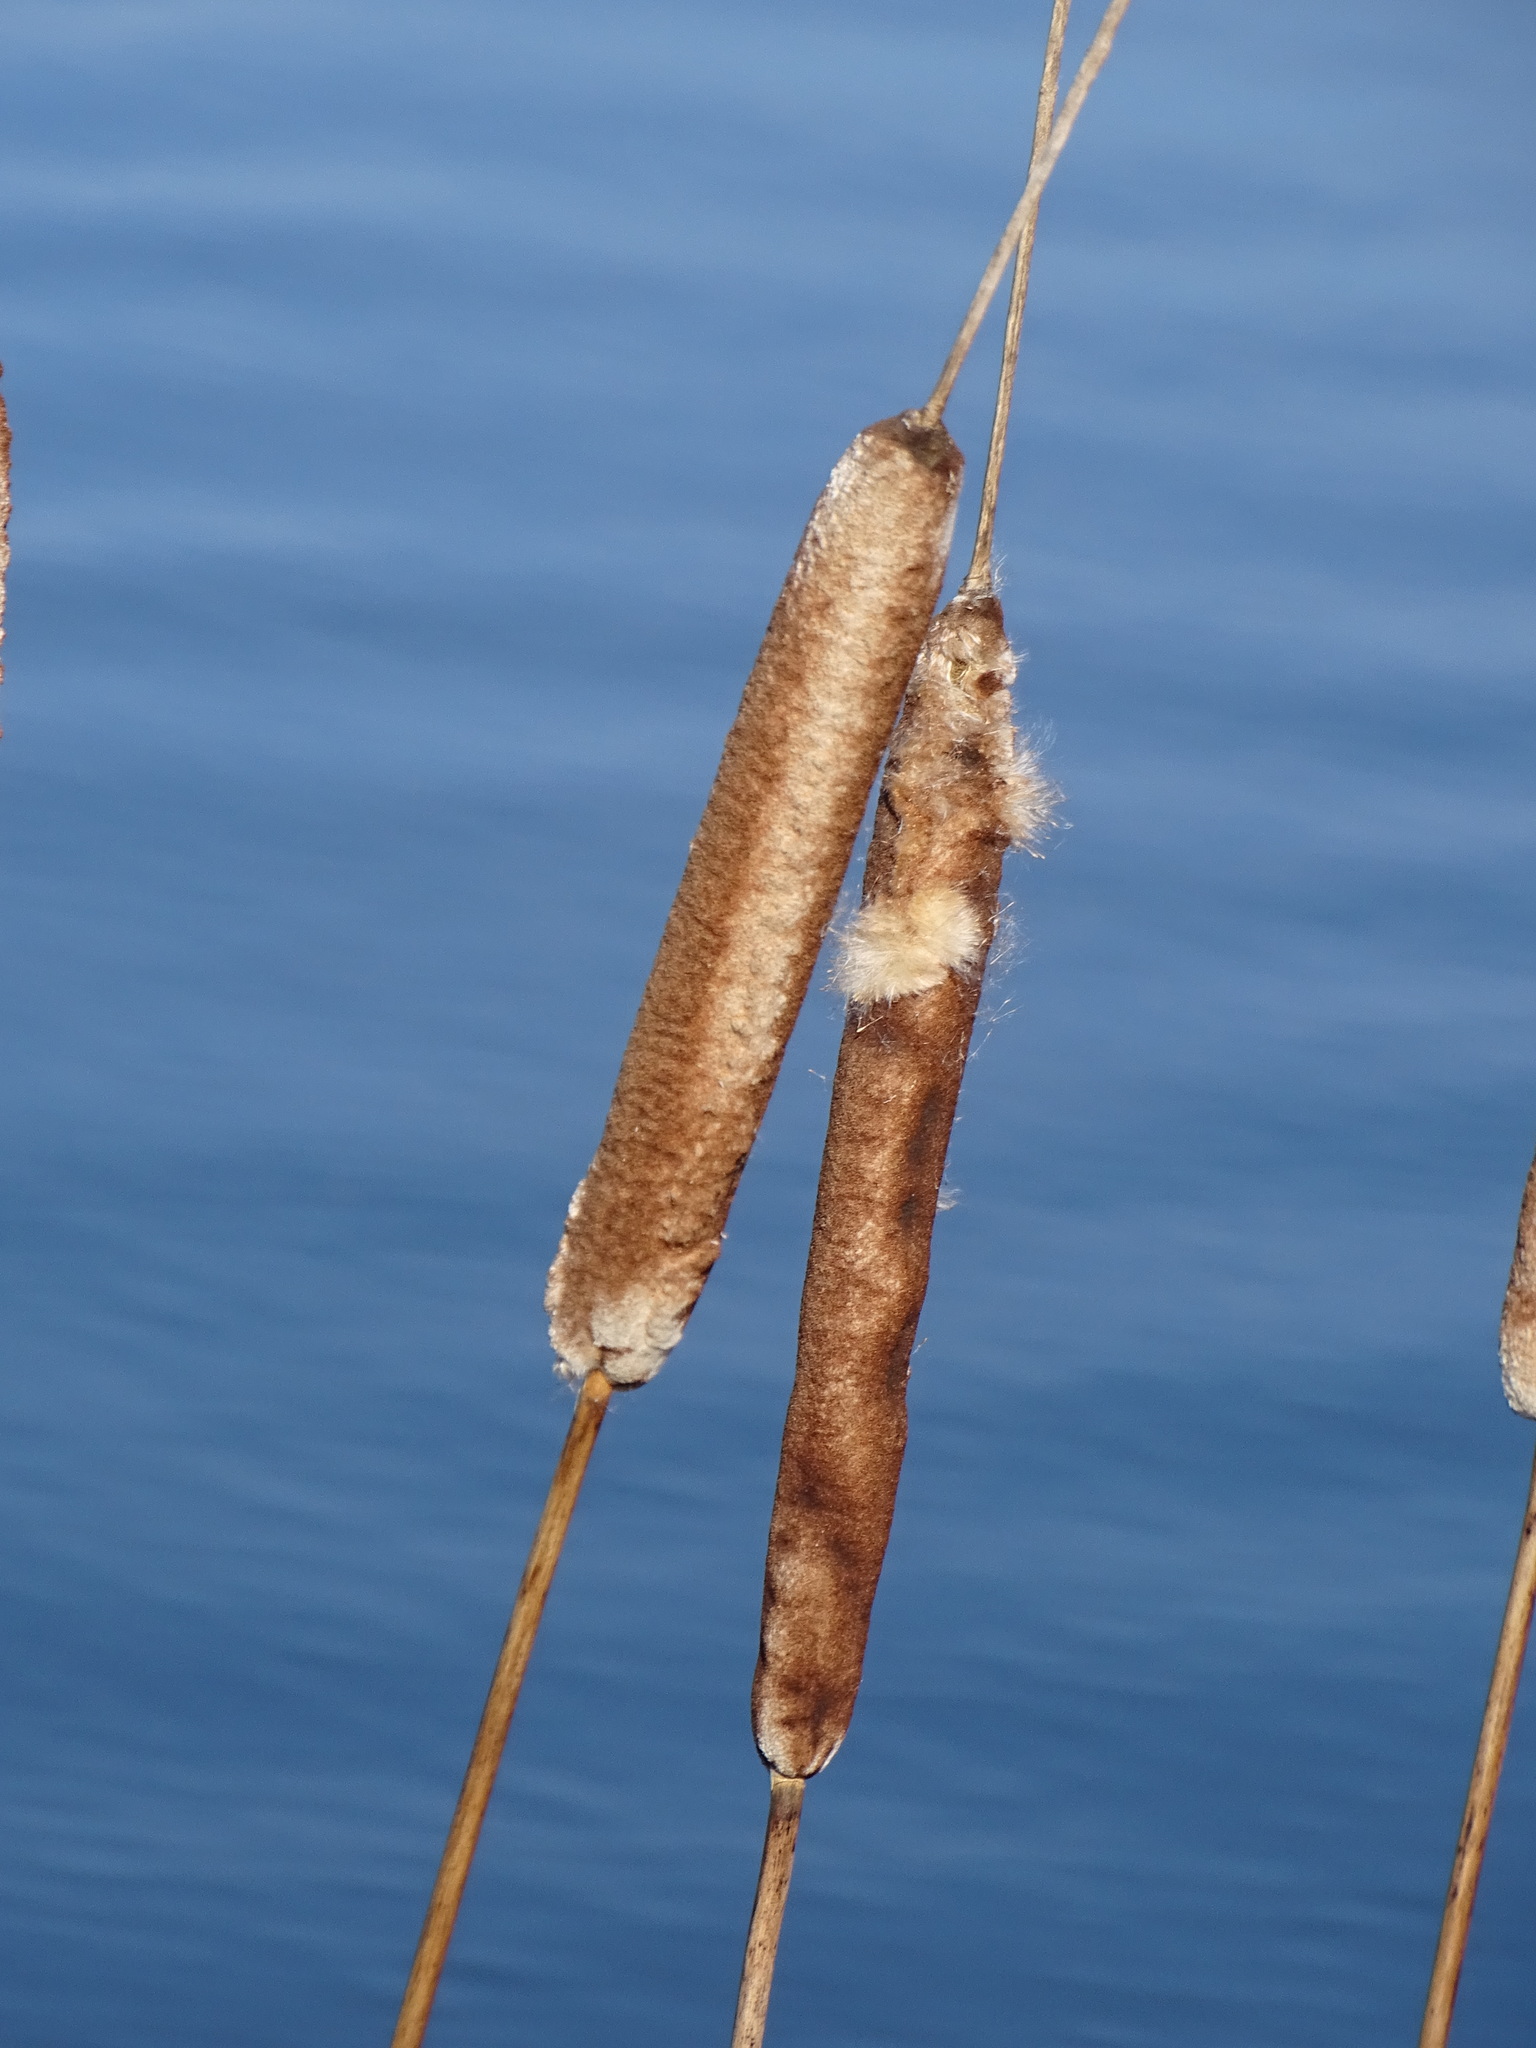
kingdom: Plantae
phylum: Tracheophyta
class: Liliopsida
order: Poales
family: Typhaceae
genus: Typha
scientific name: Typha latifolia
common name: Broadleaf cattail
